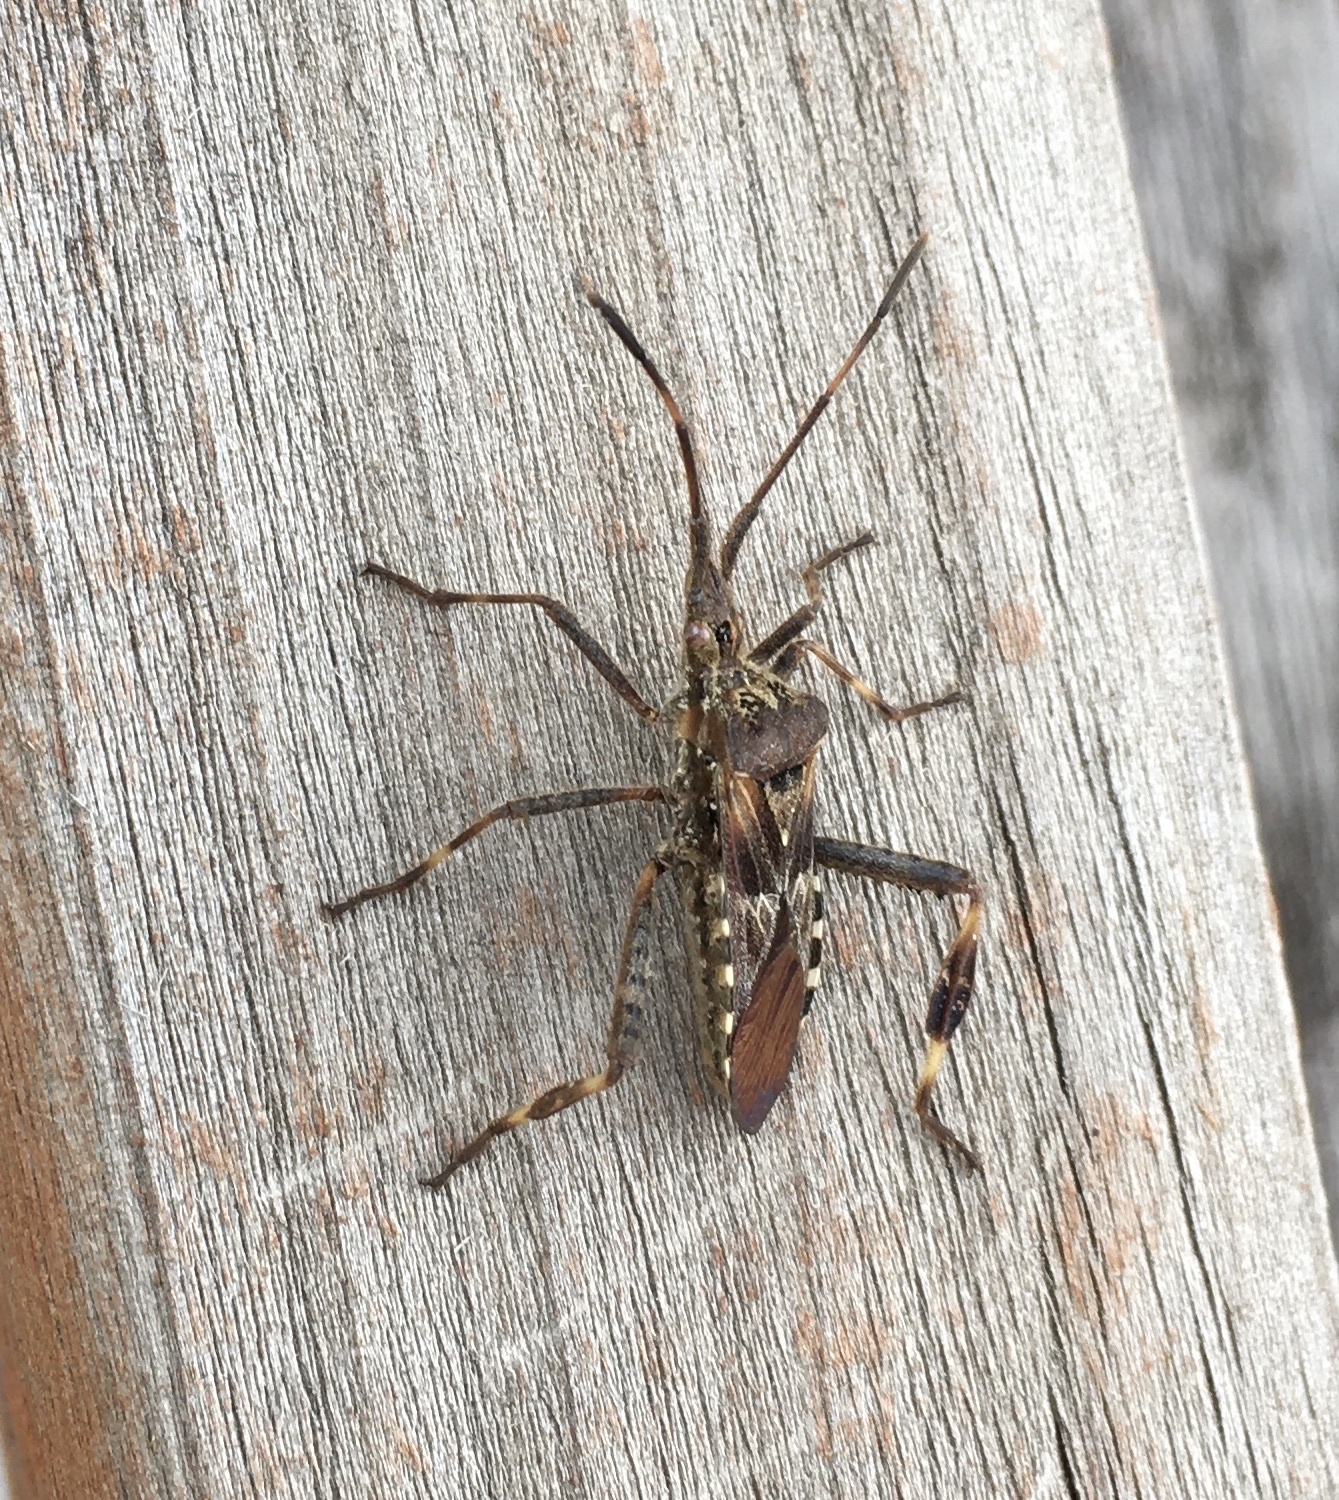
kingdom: Animalia
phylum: Arthropoda
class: Insecta
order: Hemiptera
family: Coreidae
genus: Leptoglossus
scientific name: Leptoglossus occidentalis
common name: Western conifer-seed bug
